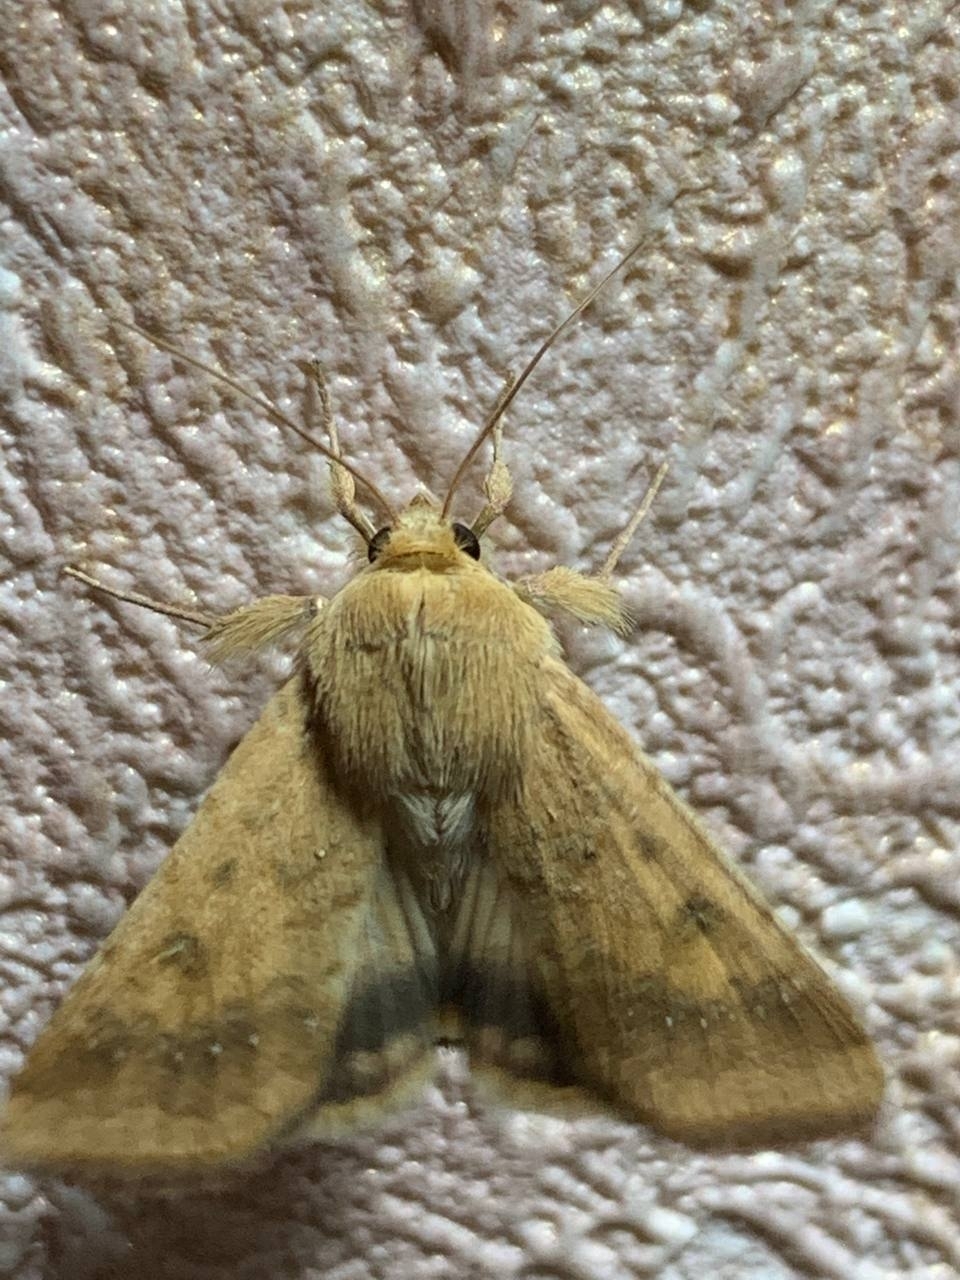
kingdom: Animalia
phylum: Arthropoda
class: Insecta
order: Lepidoptera
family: Noctuidae
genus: Helicoverpa
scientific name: Helicoverpa armigera
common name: Cotton bollworm
